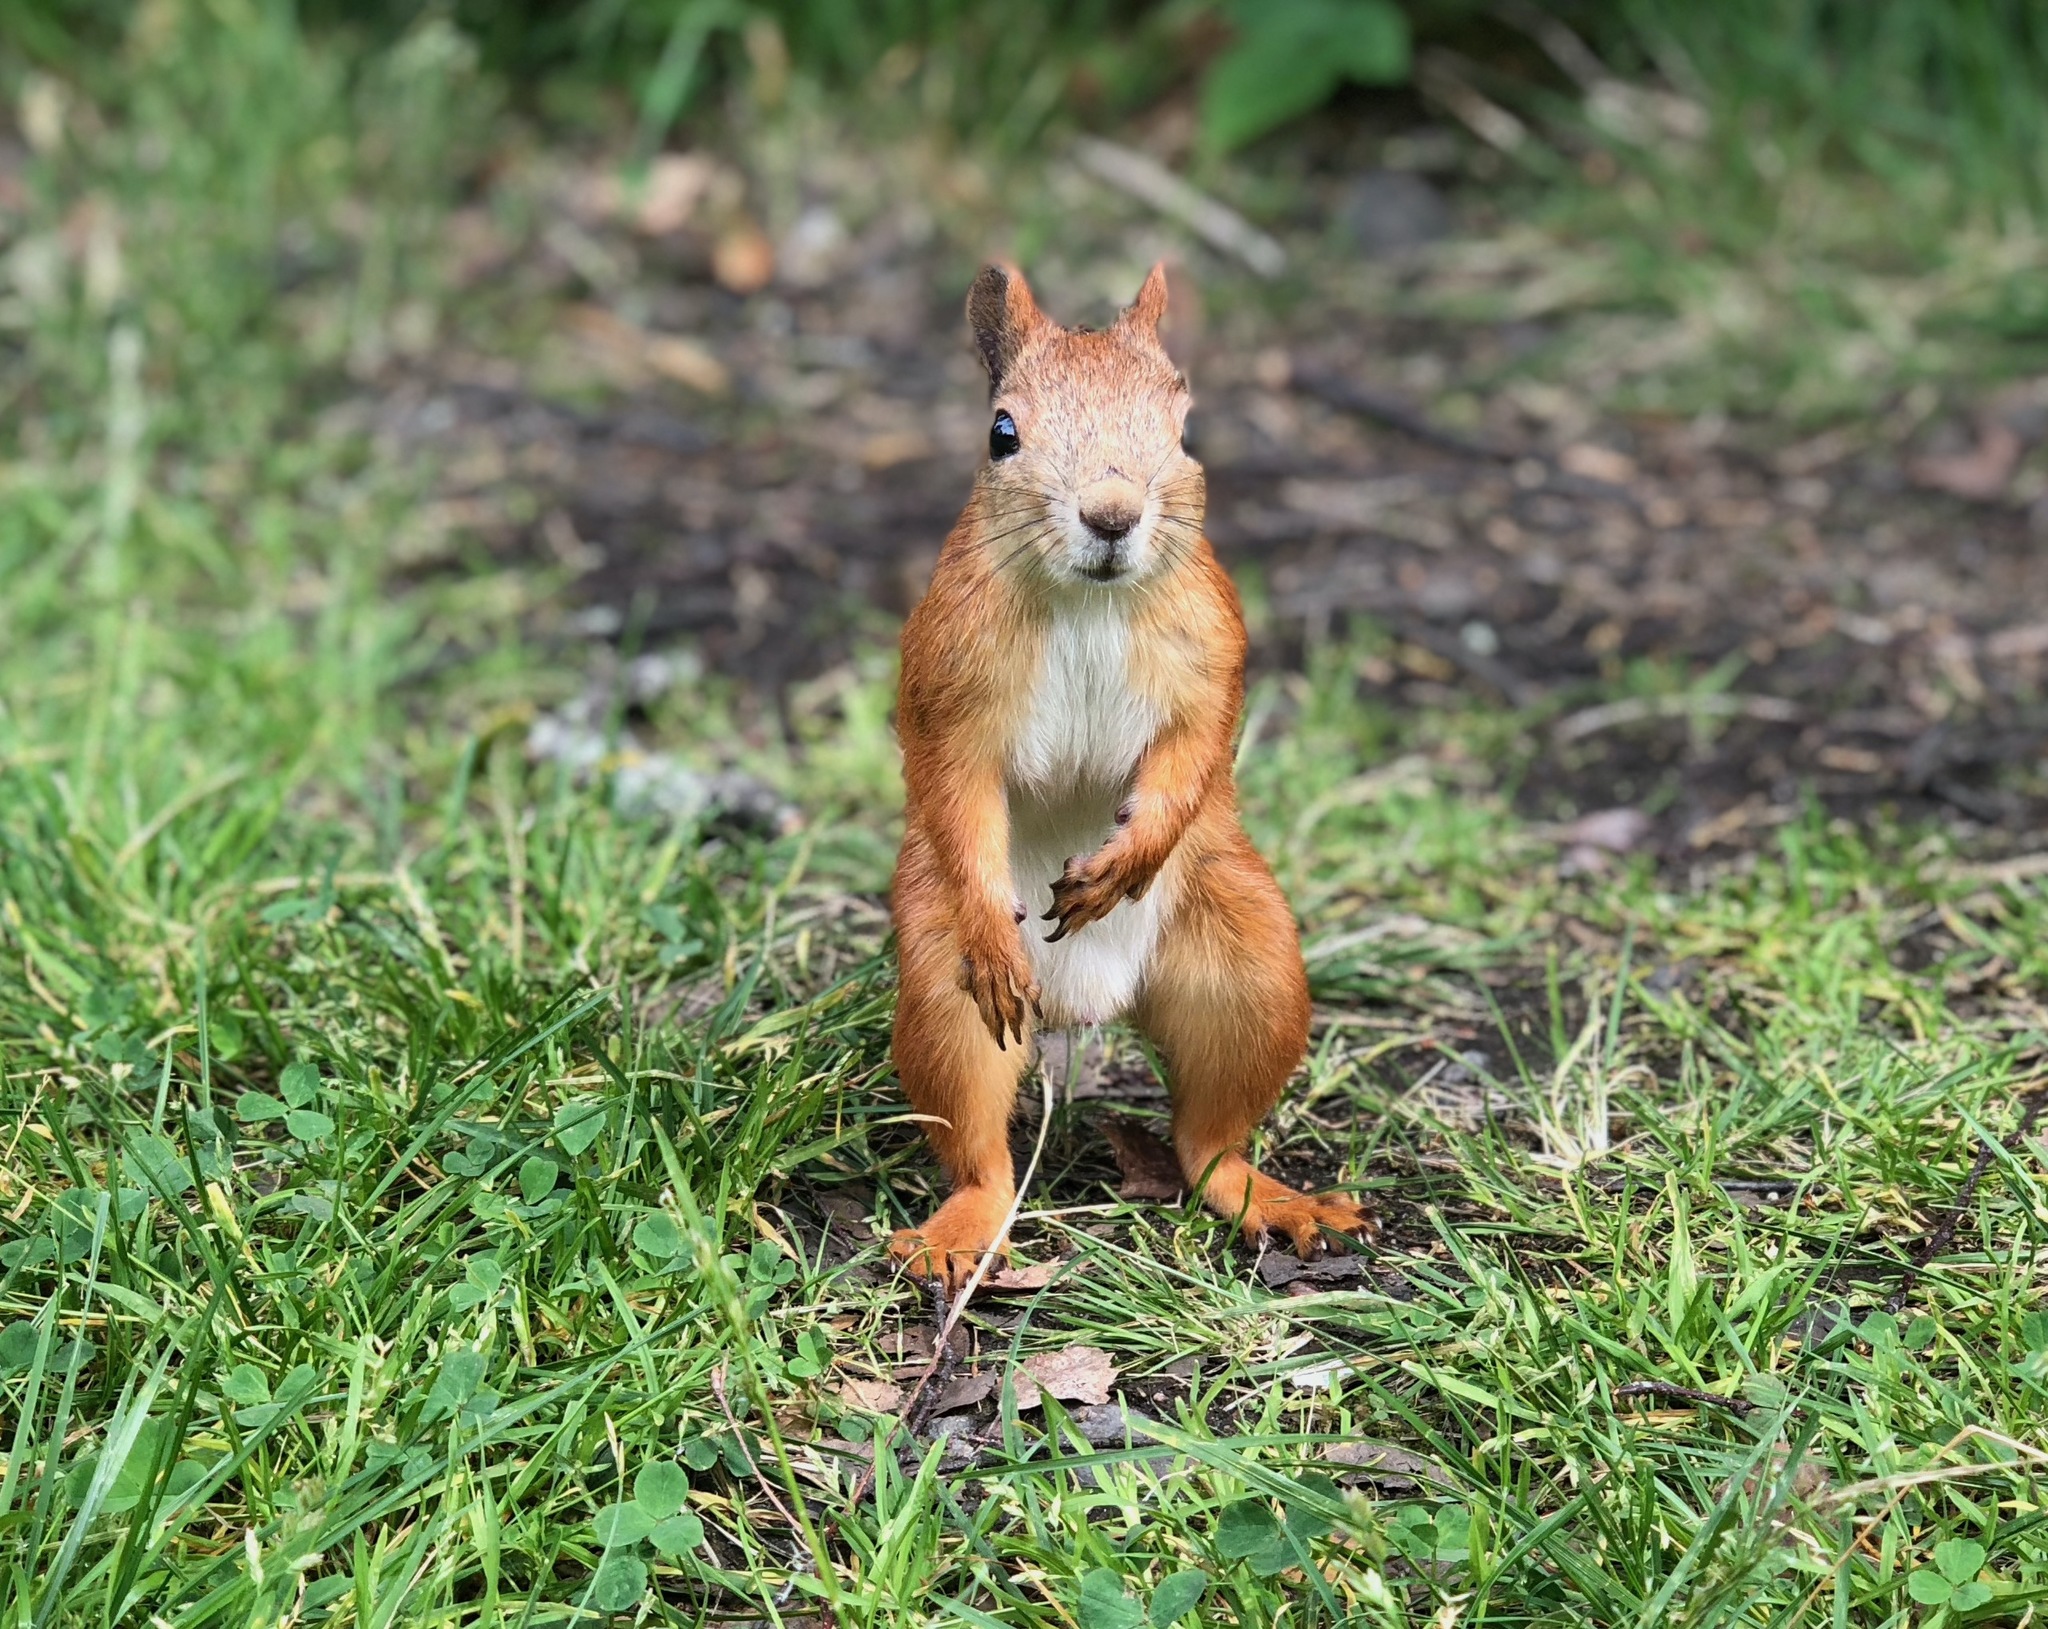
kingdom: Animalia
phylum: Chordata
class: Mammalia
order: Rodentia
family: Sciuridae
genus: Sciurus
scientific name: Sciurus vulgaris
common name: Eurasian red squirrel
